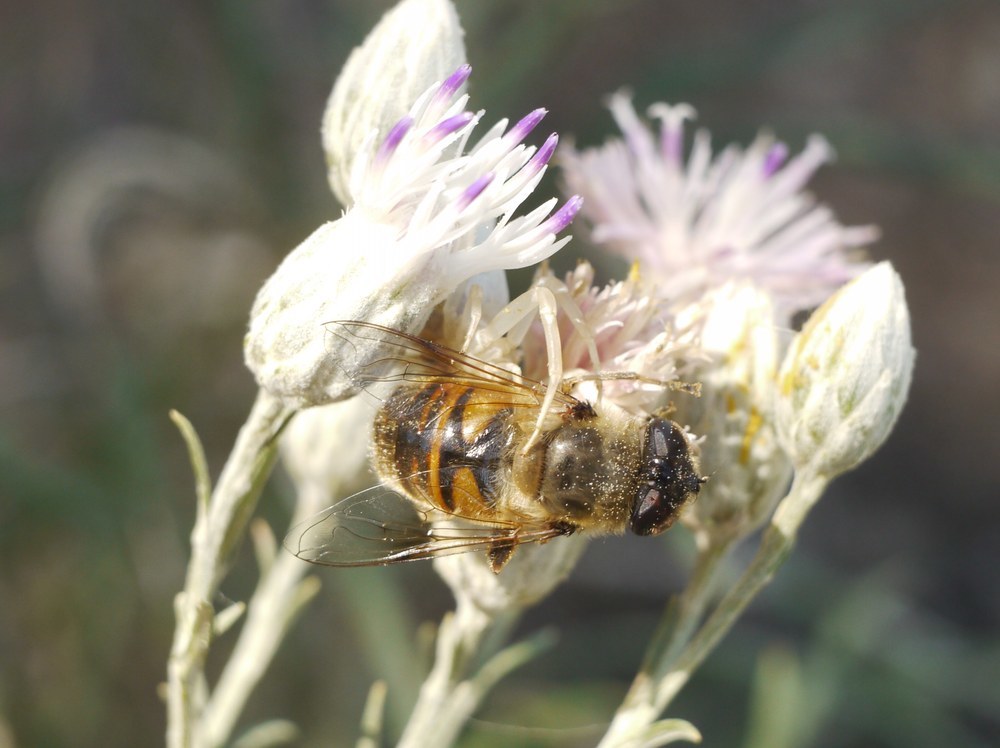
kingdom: Animalia
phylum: Arthropoda
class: Insecta
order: Diptera
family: Syrphidae
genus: Eristalis
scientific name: Eristalis tenax
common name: Drone fly
